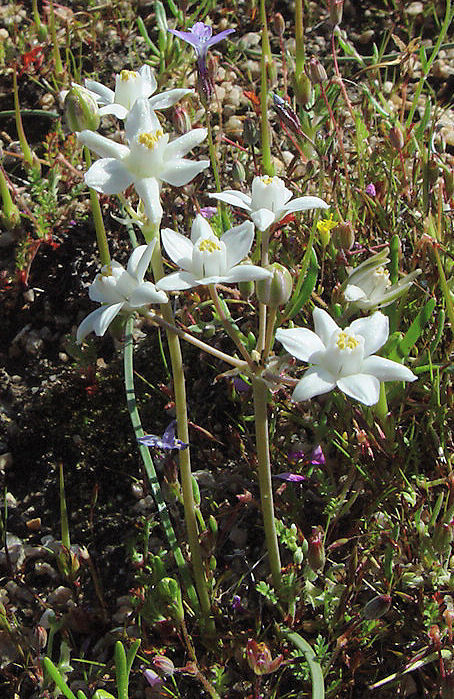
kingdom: Plantae
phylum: Tracheophyta
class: Liliopsida
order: Asparagales
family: Asparagaceae
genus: Muilla
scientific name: Muilla coronata
